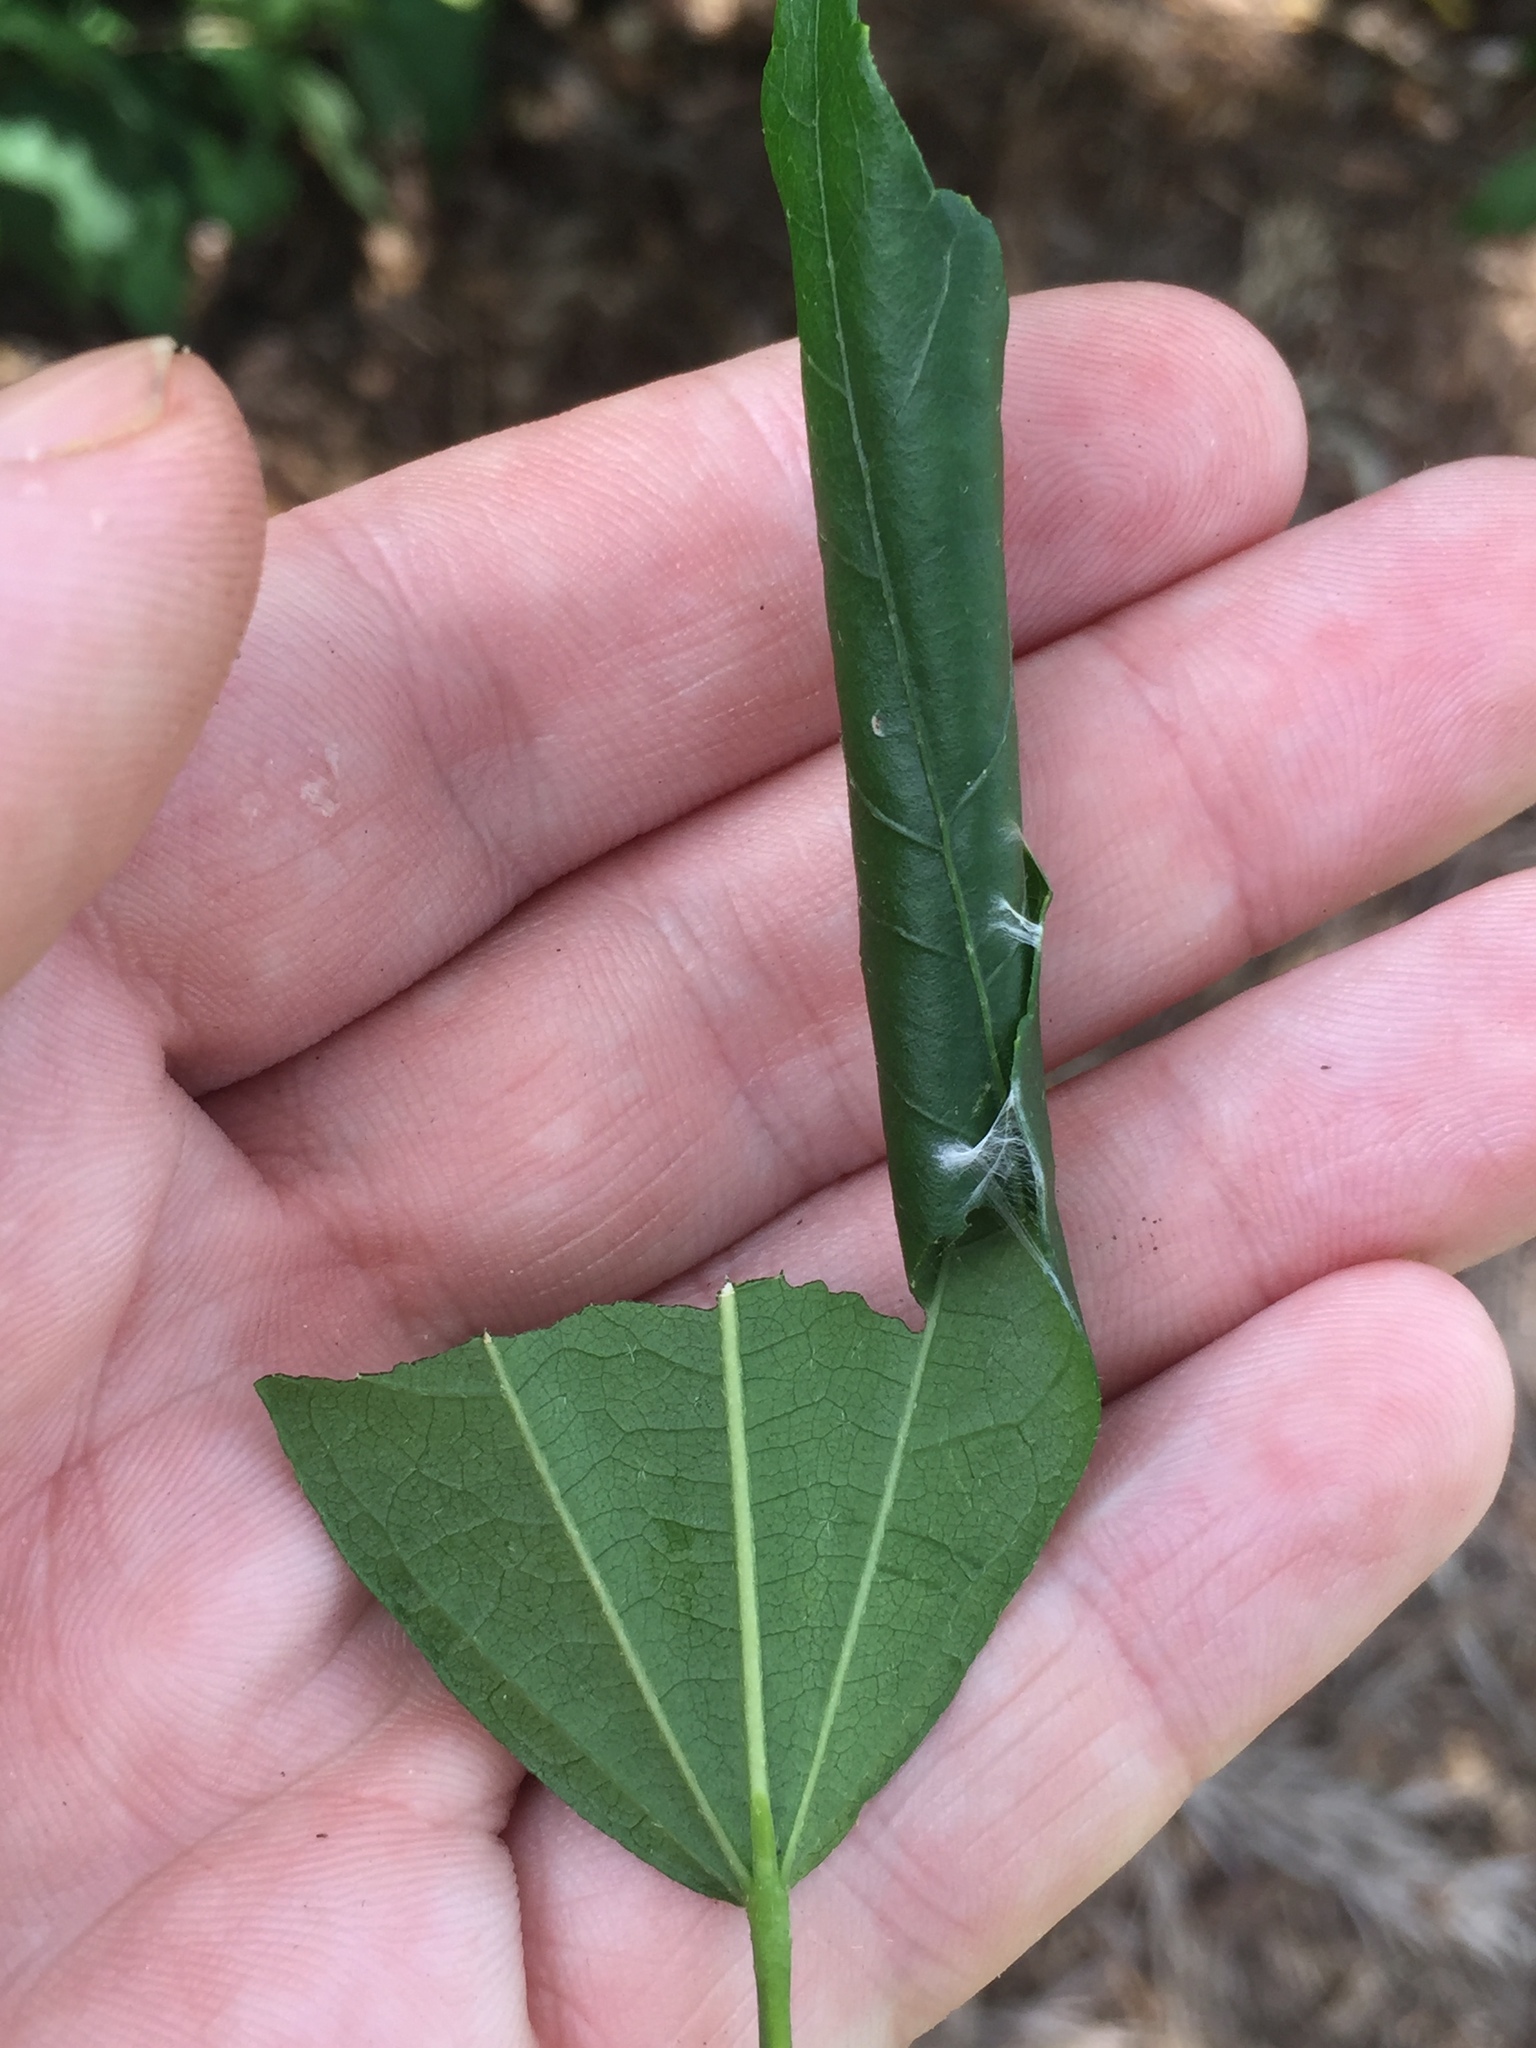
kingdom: Animalia
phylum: Arthropoda
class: Insecta
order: Lepidoptera
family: Crambidae
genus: Haritalodes
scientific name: Haritalodes derogata
